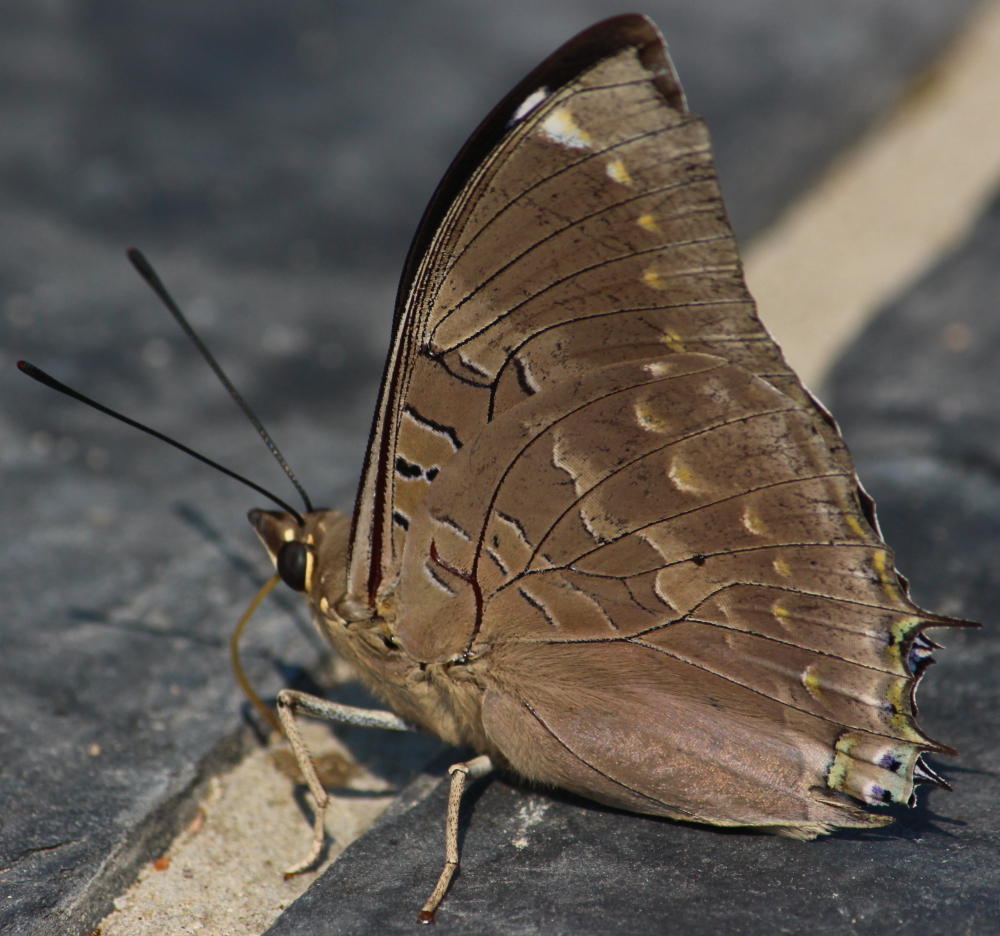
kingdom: Animalia
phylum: Arthropoda
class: Insecta
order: Lepidoptera
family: Nymphalidae
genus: Charaxes
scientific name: Charaxes bohemani
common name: Large blue charaxes
